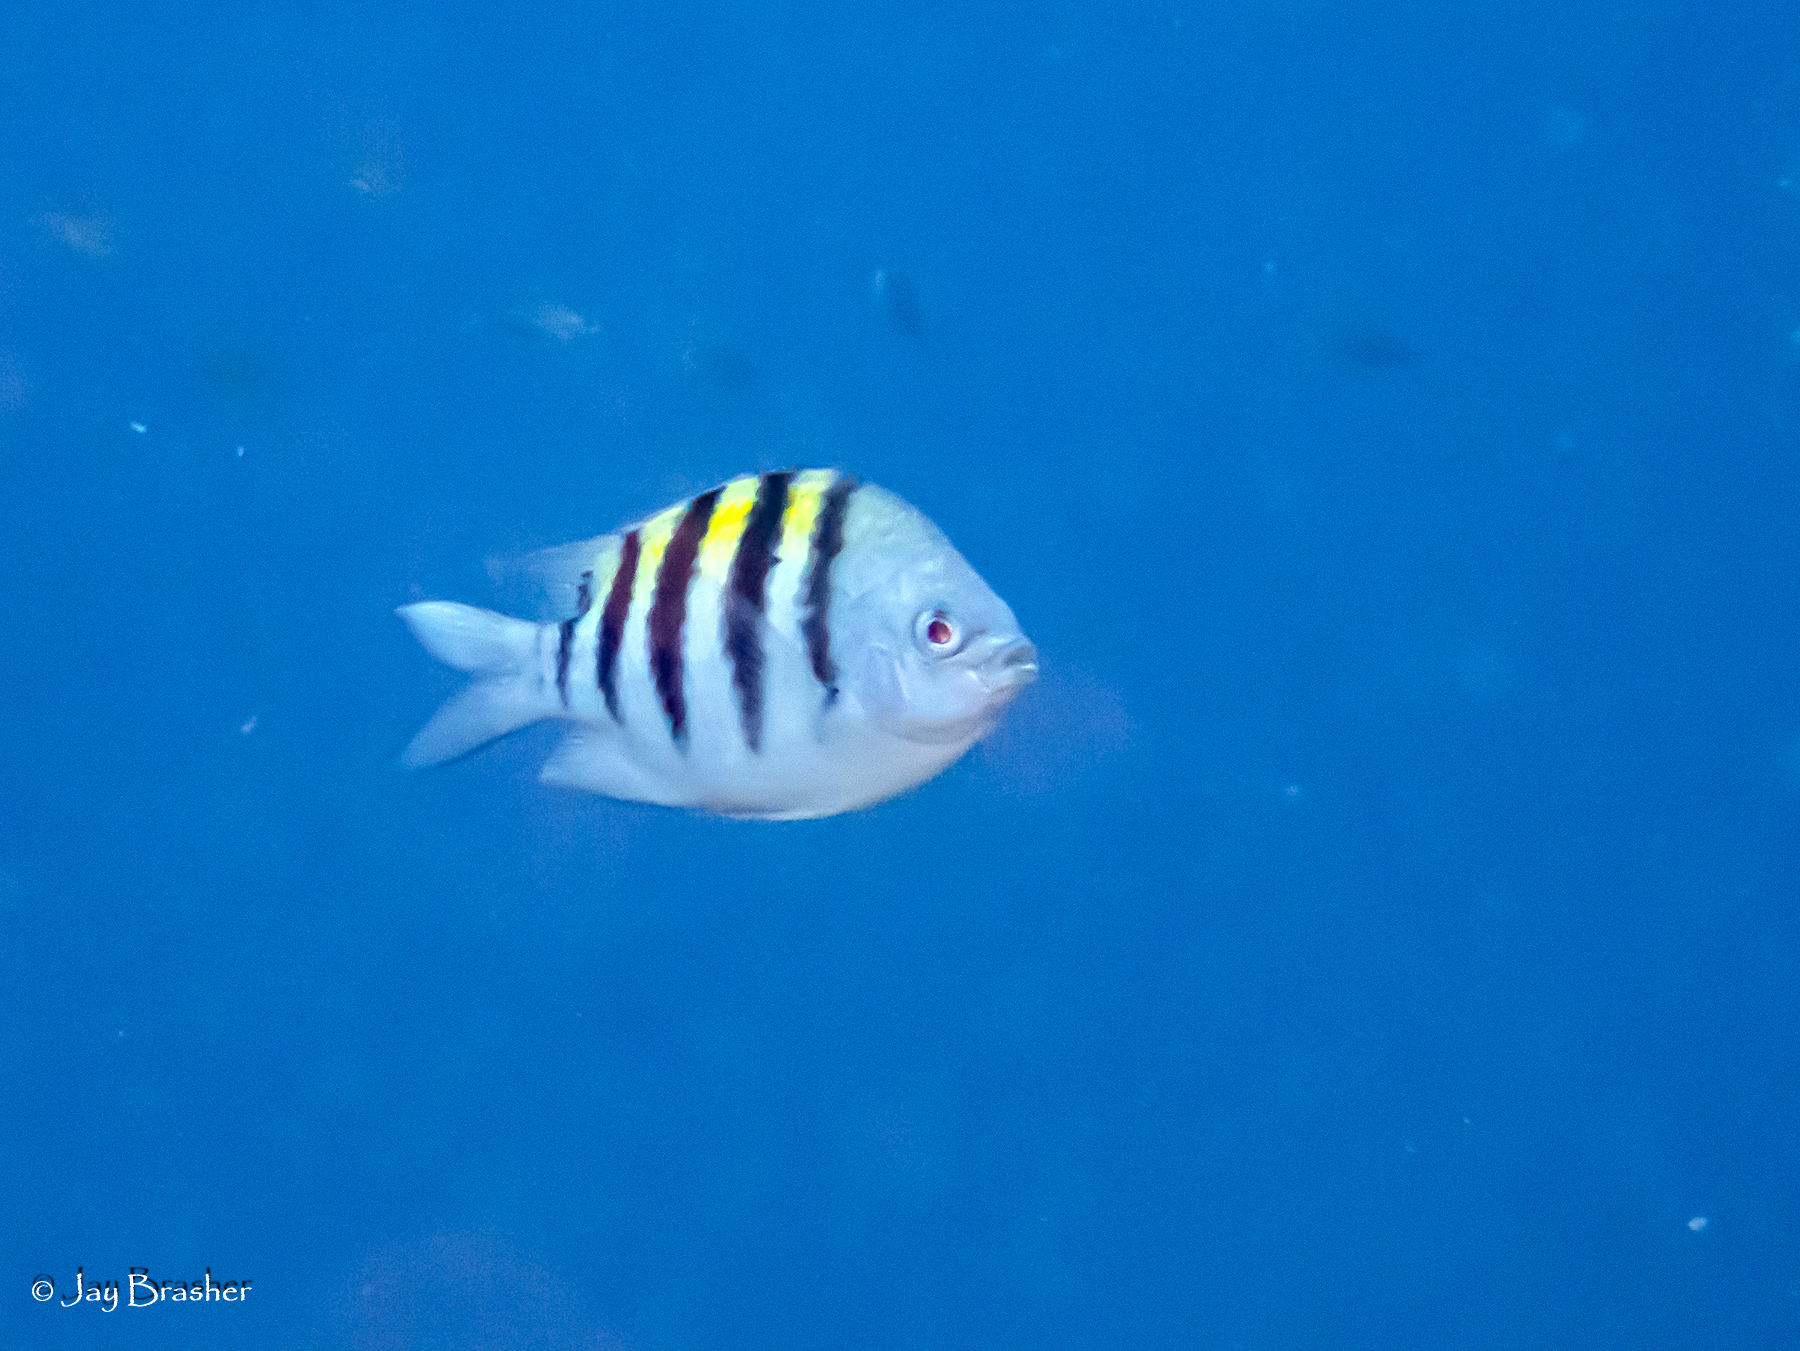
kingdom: Animalia
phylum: Chordata
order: Perciformes
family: Pomacentridae
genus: Abudefduf
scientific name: Abudefduf saxatilis
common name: Sergeant major
